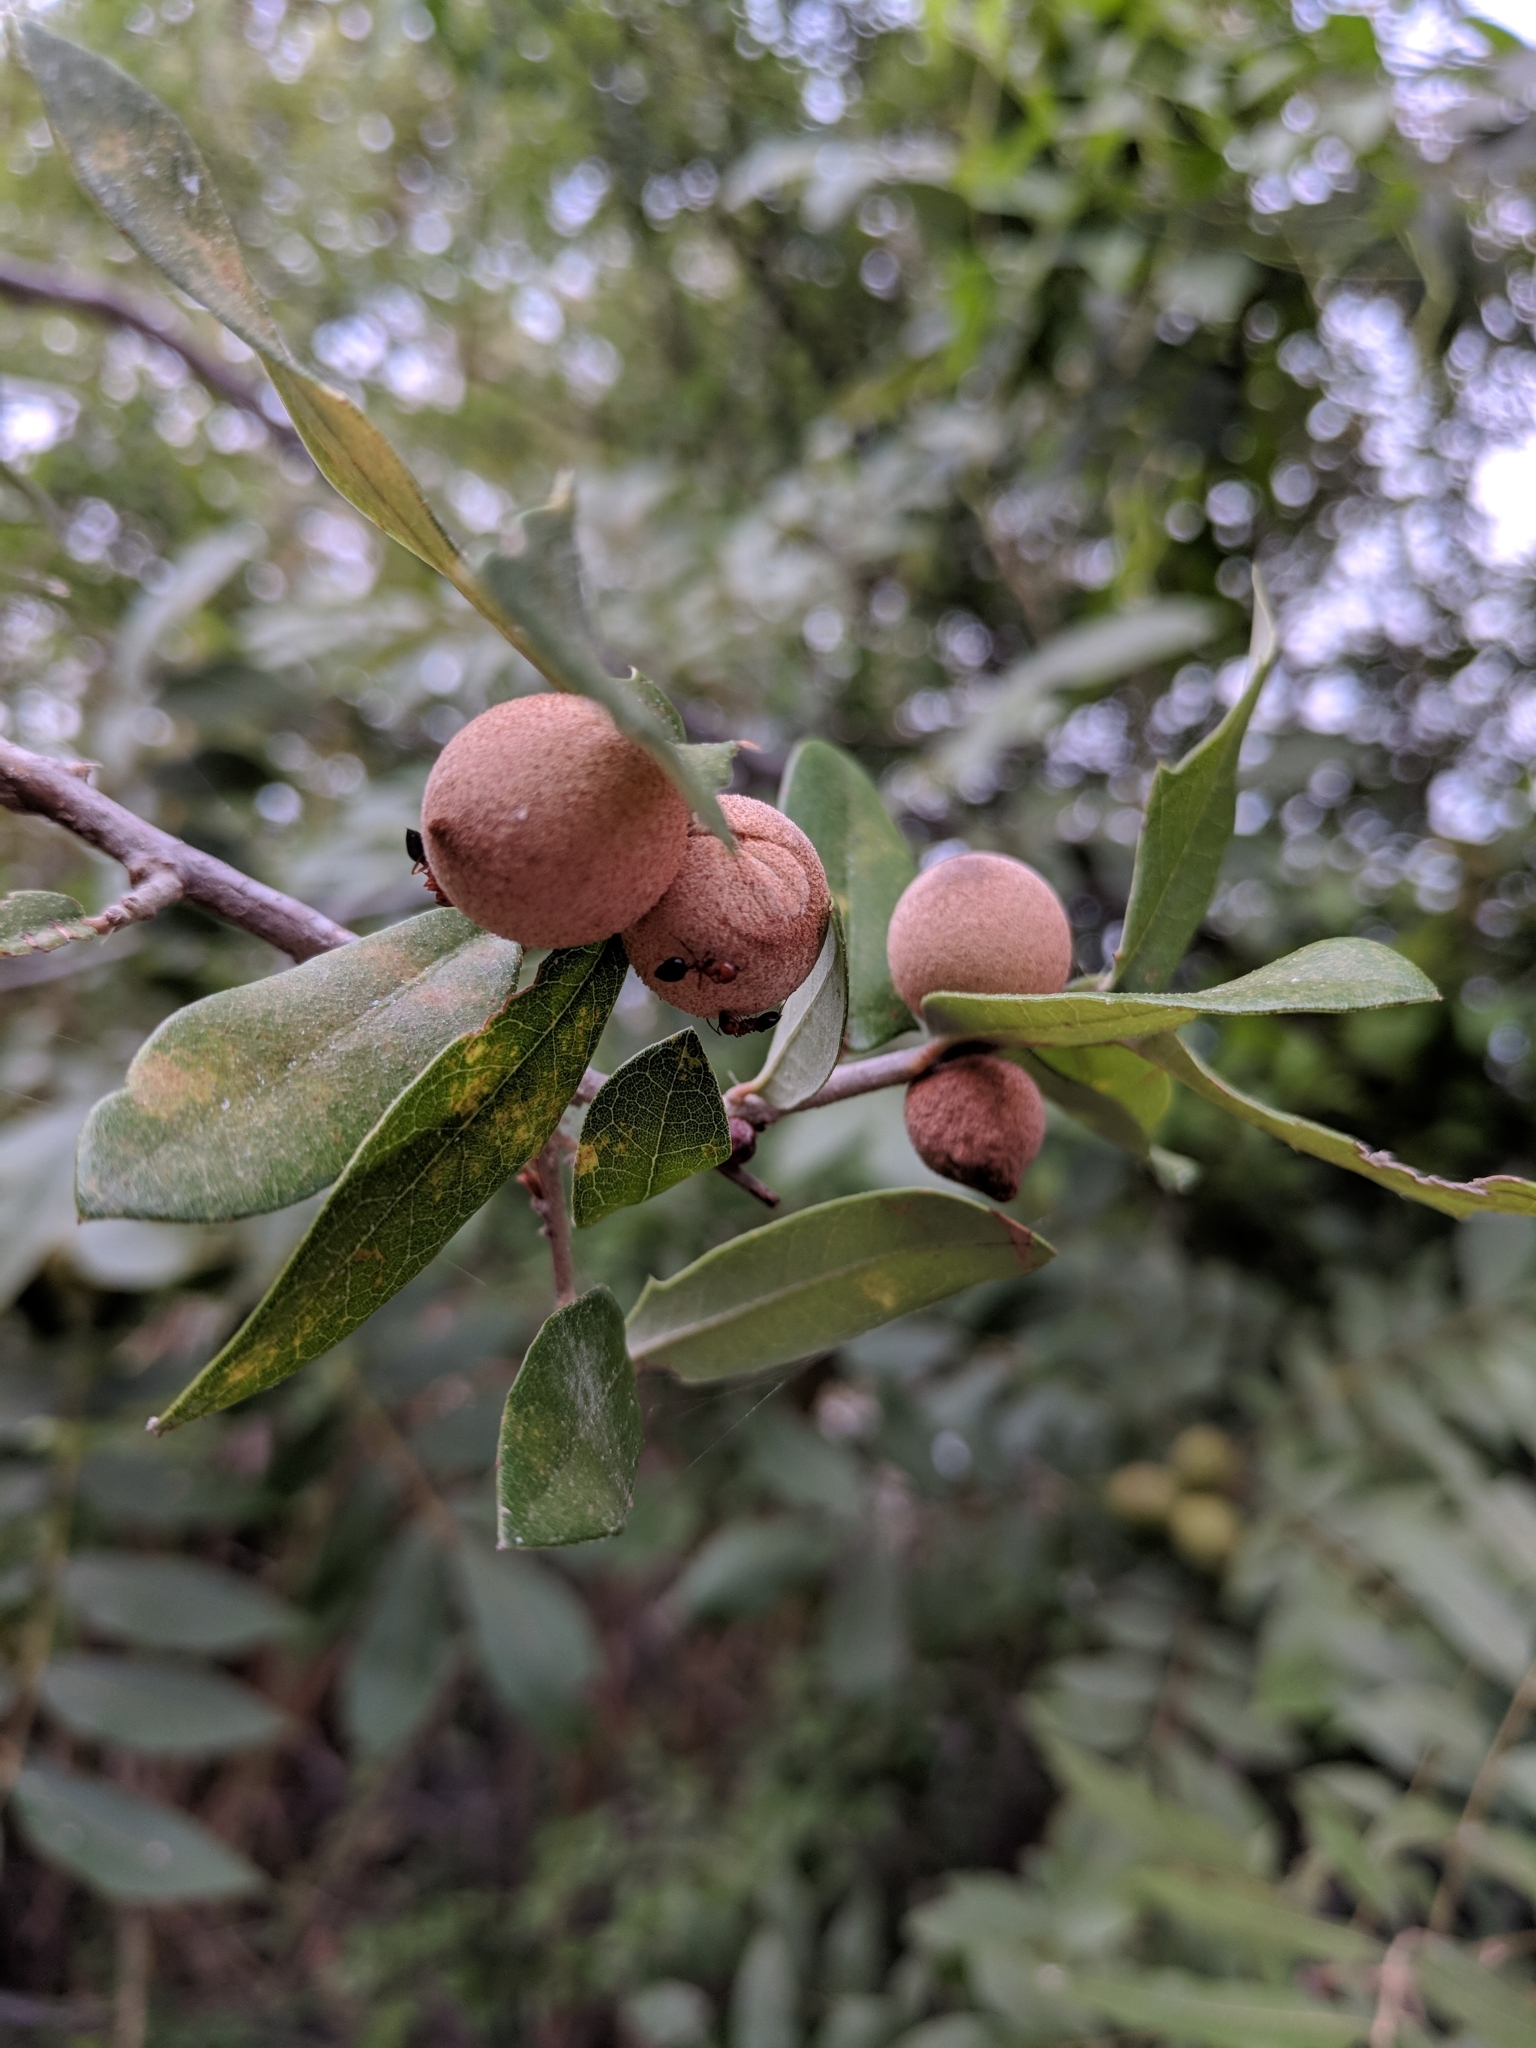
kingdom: Animalia
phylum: Arthropoda
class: Insecta
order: Hymenoptera
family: Cynipidae
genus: Disholcaspis
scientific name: Disholcaspis
